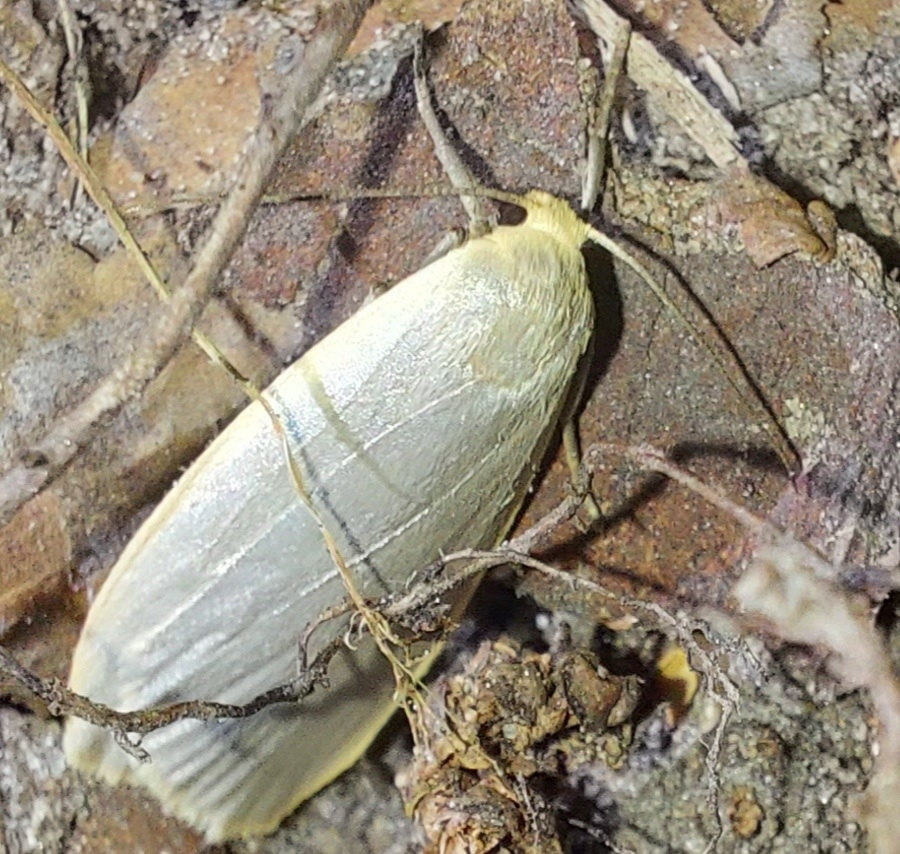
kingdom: Animalia
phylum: Arthropoda
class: Insecta
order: Lepidoptera
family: Erebidae
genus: Collita
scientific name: Collita griseola
